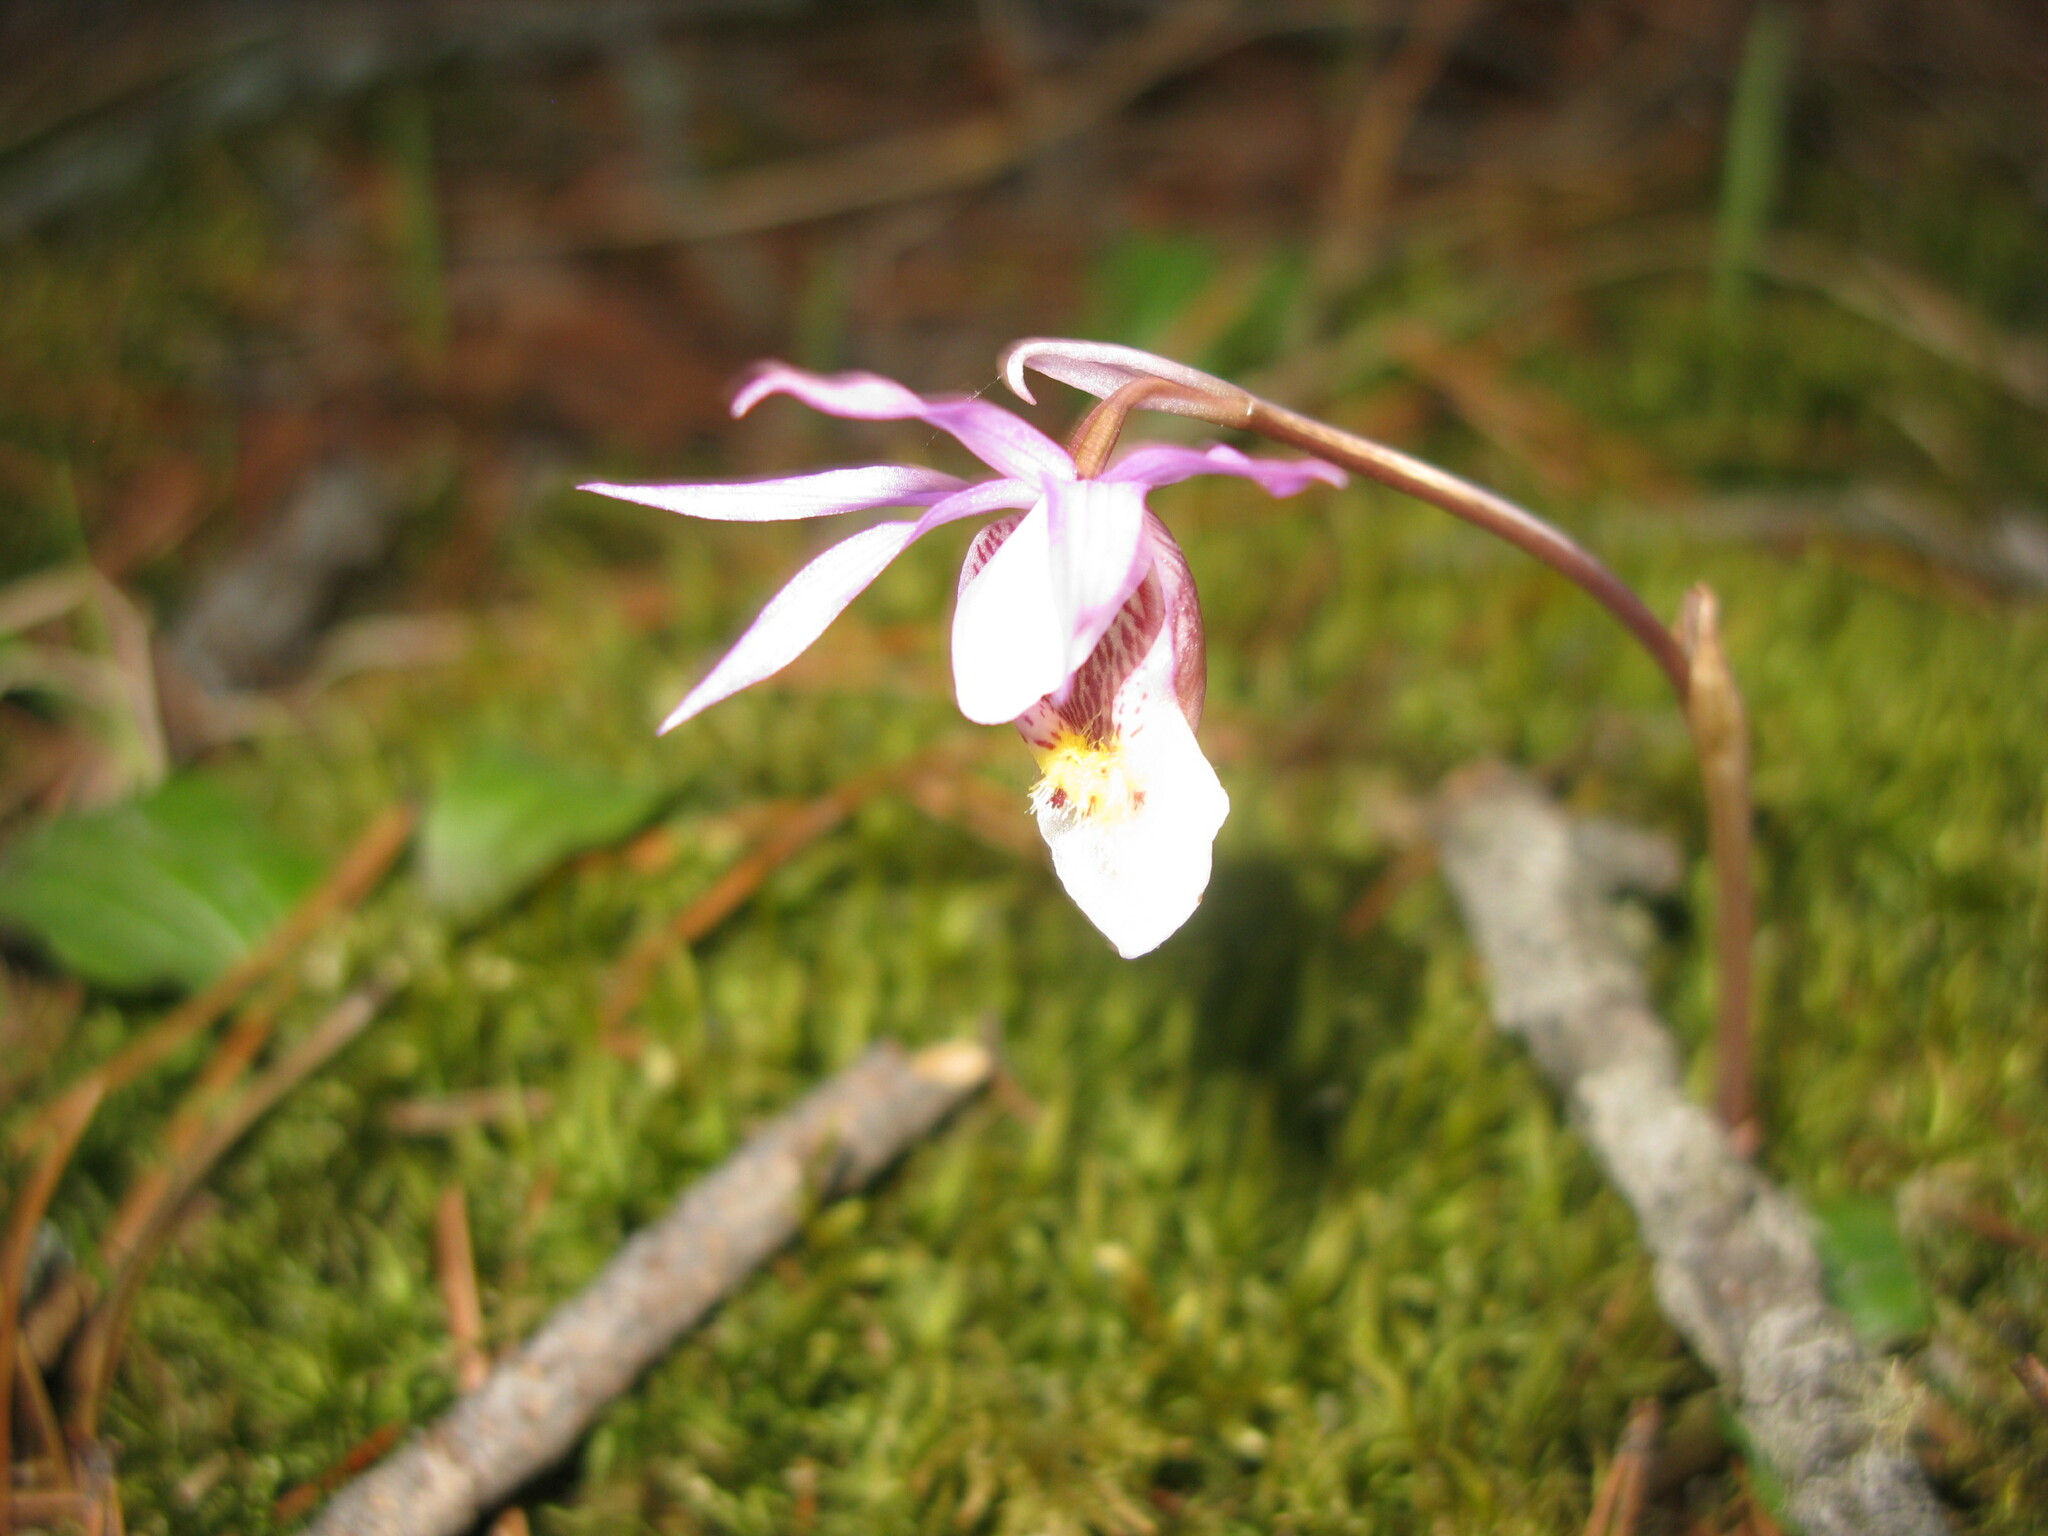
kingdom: Plantae
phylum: Tracheophyta
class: Liliopsida
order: Asparagales
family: Orchidaceae
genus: Calypso
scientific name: Calypso bulbosa
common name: Calypso
